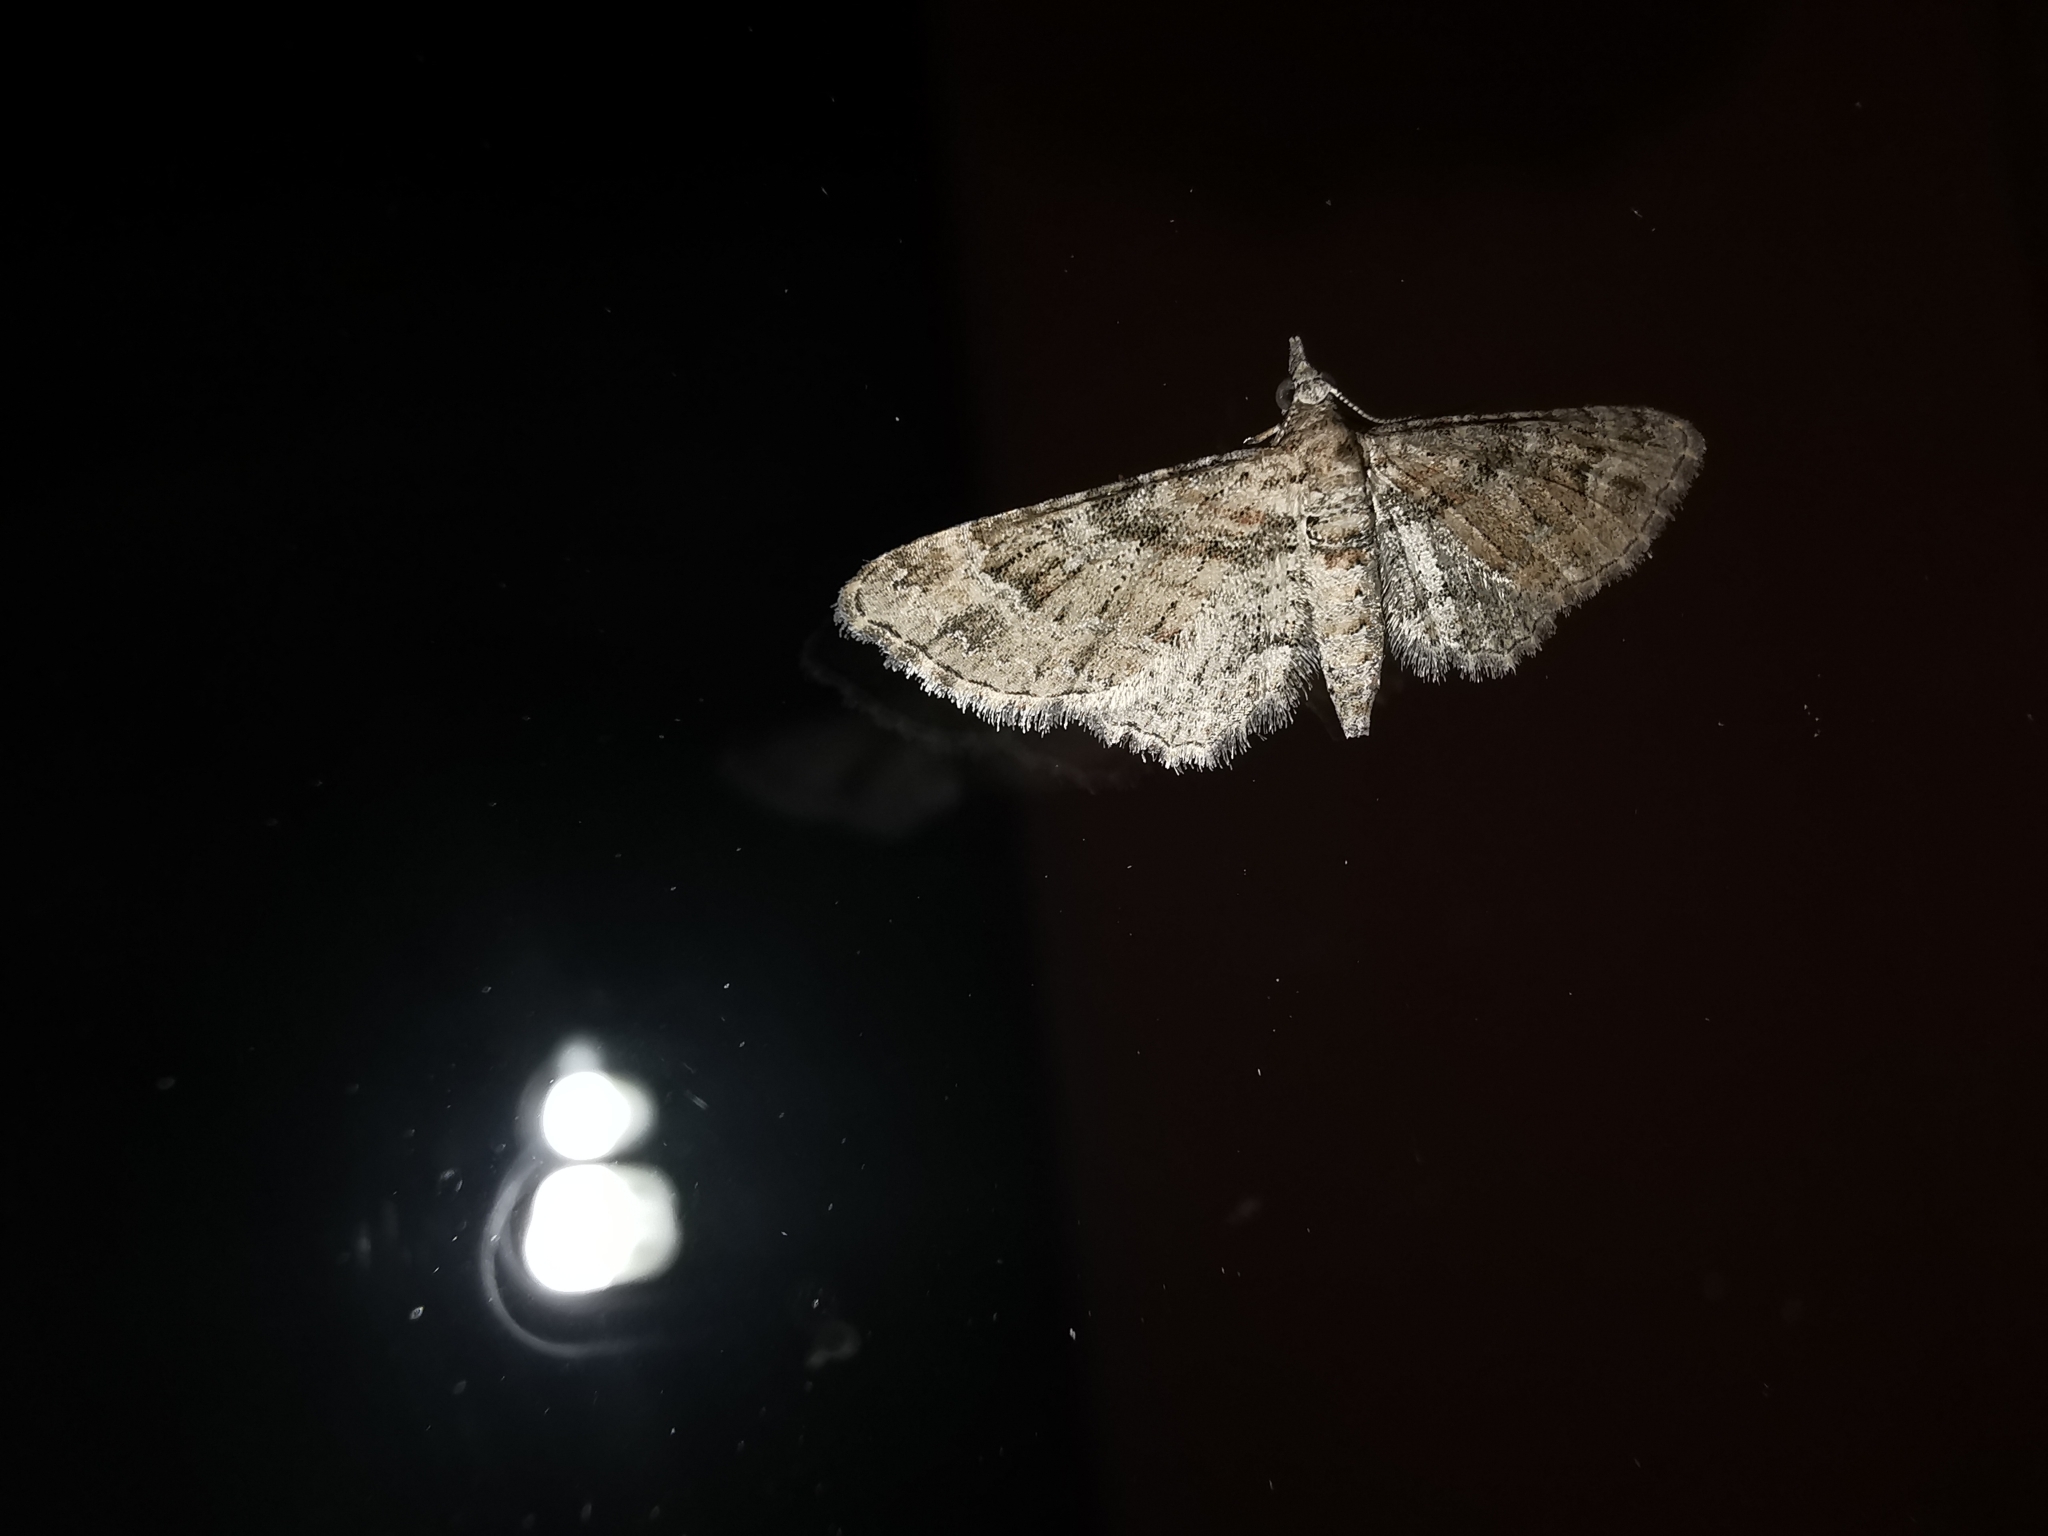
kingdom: Animalia
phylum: Arthropoda
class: Insecta
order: Lepidoptera
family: Geometridae
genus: Gymnoscelis
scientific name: Gymnoscelis rufifasciata
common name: Double-striped pug
